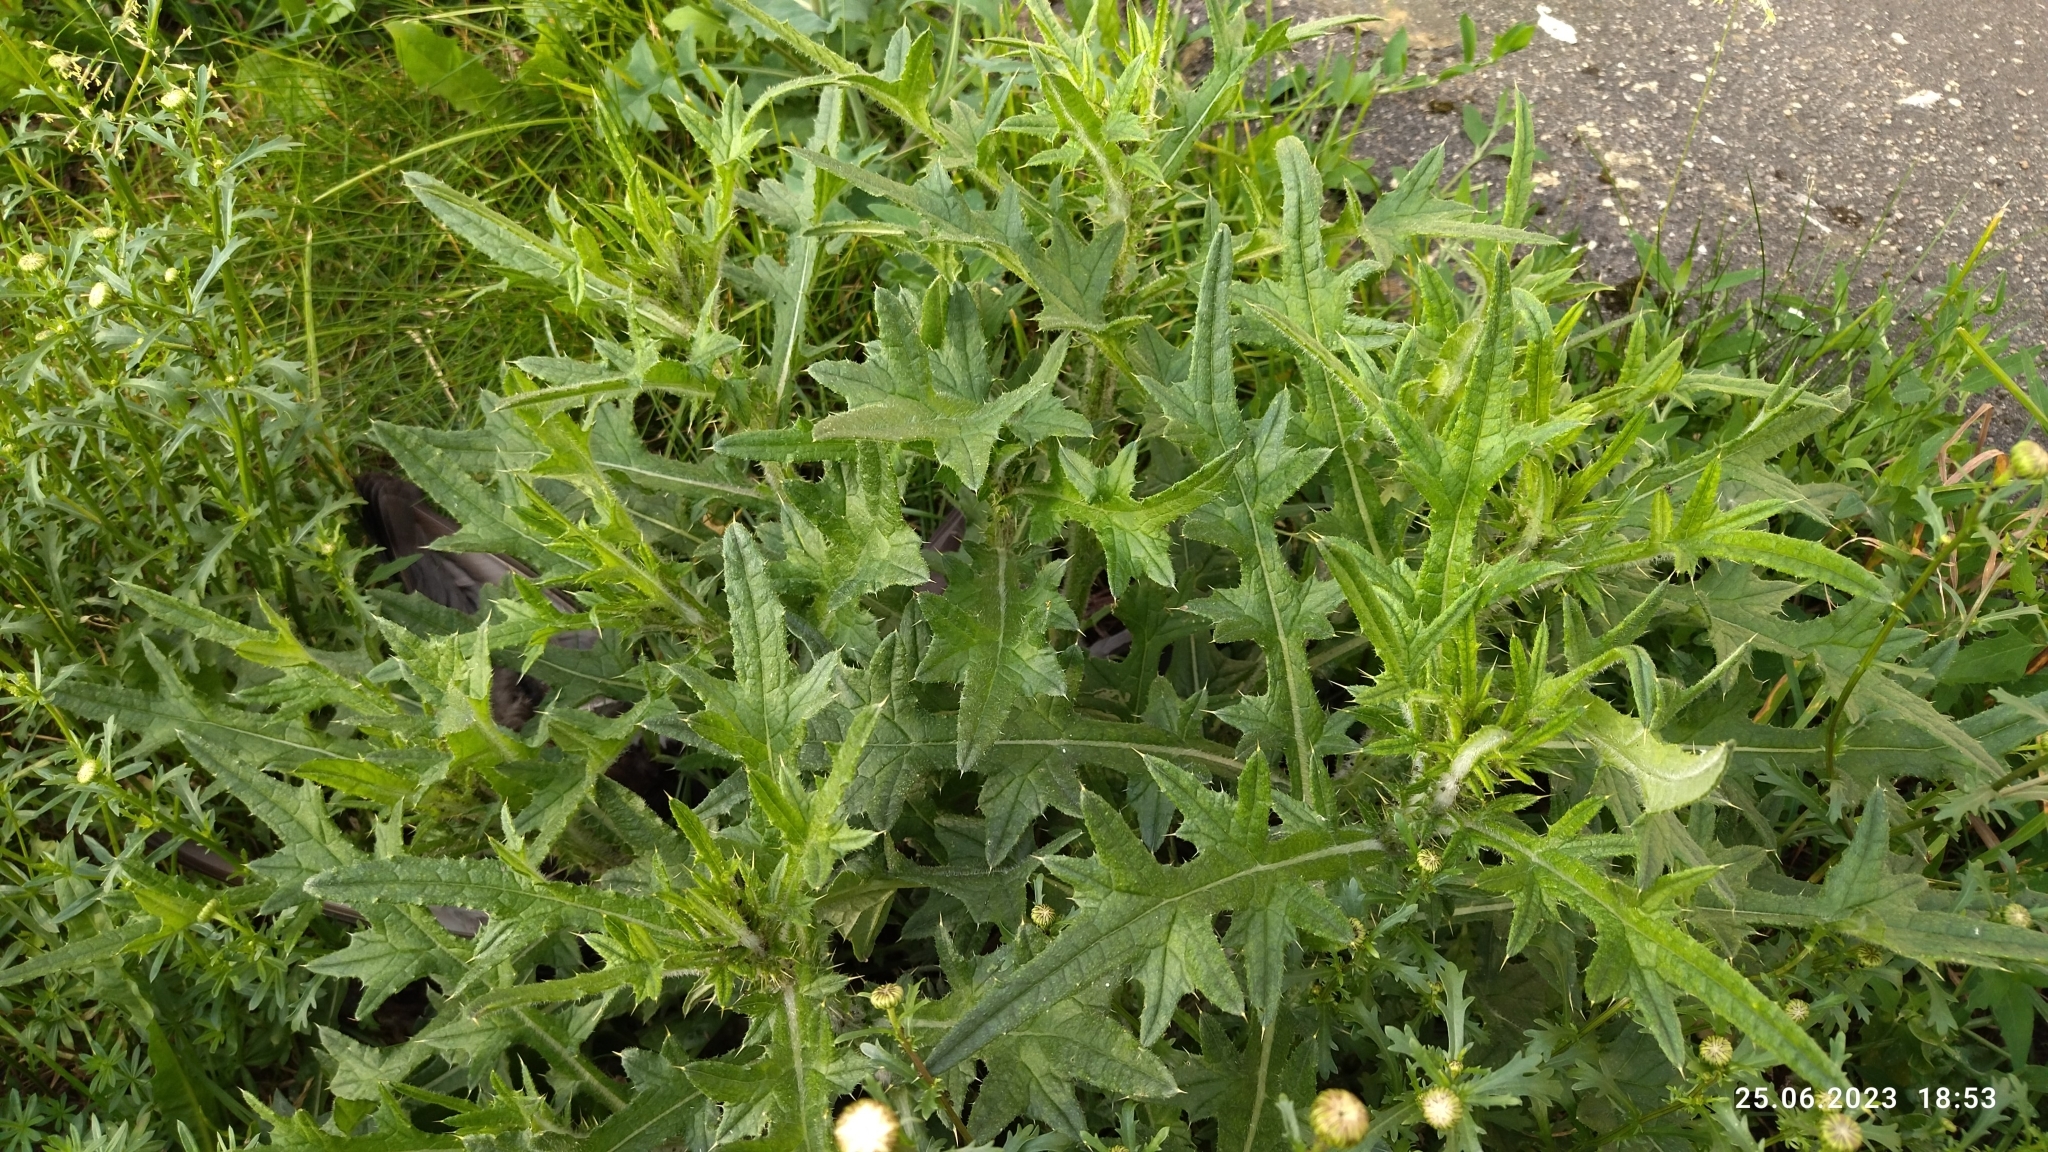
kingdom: Plantae
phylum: Tracheophyta
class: Magnoliopsida
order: Asterales
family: Asteraceae
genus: Cirsium
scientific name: Cirsium vulgare
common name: Bull thistle
